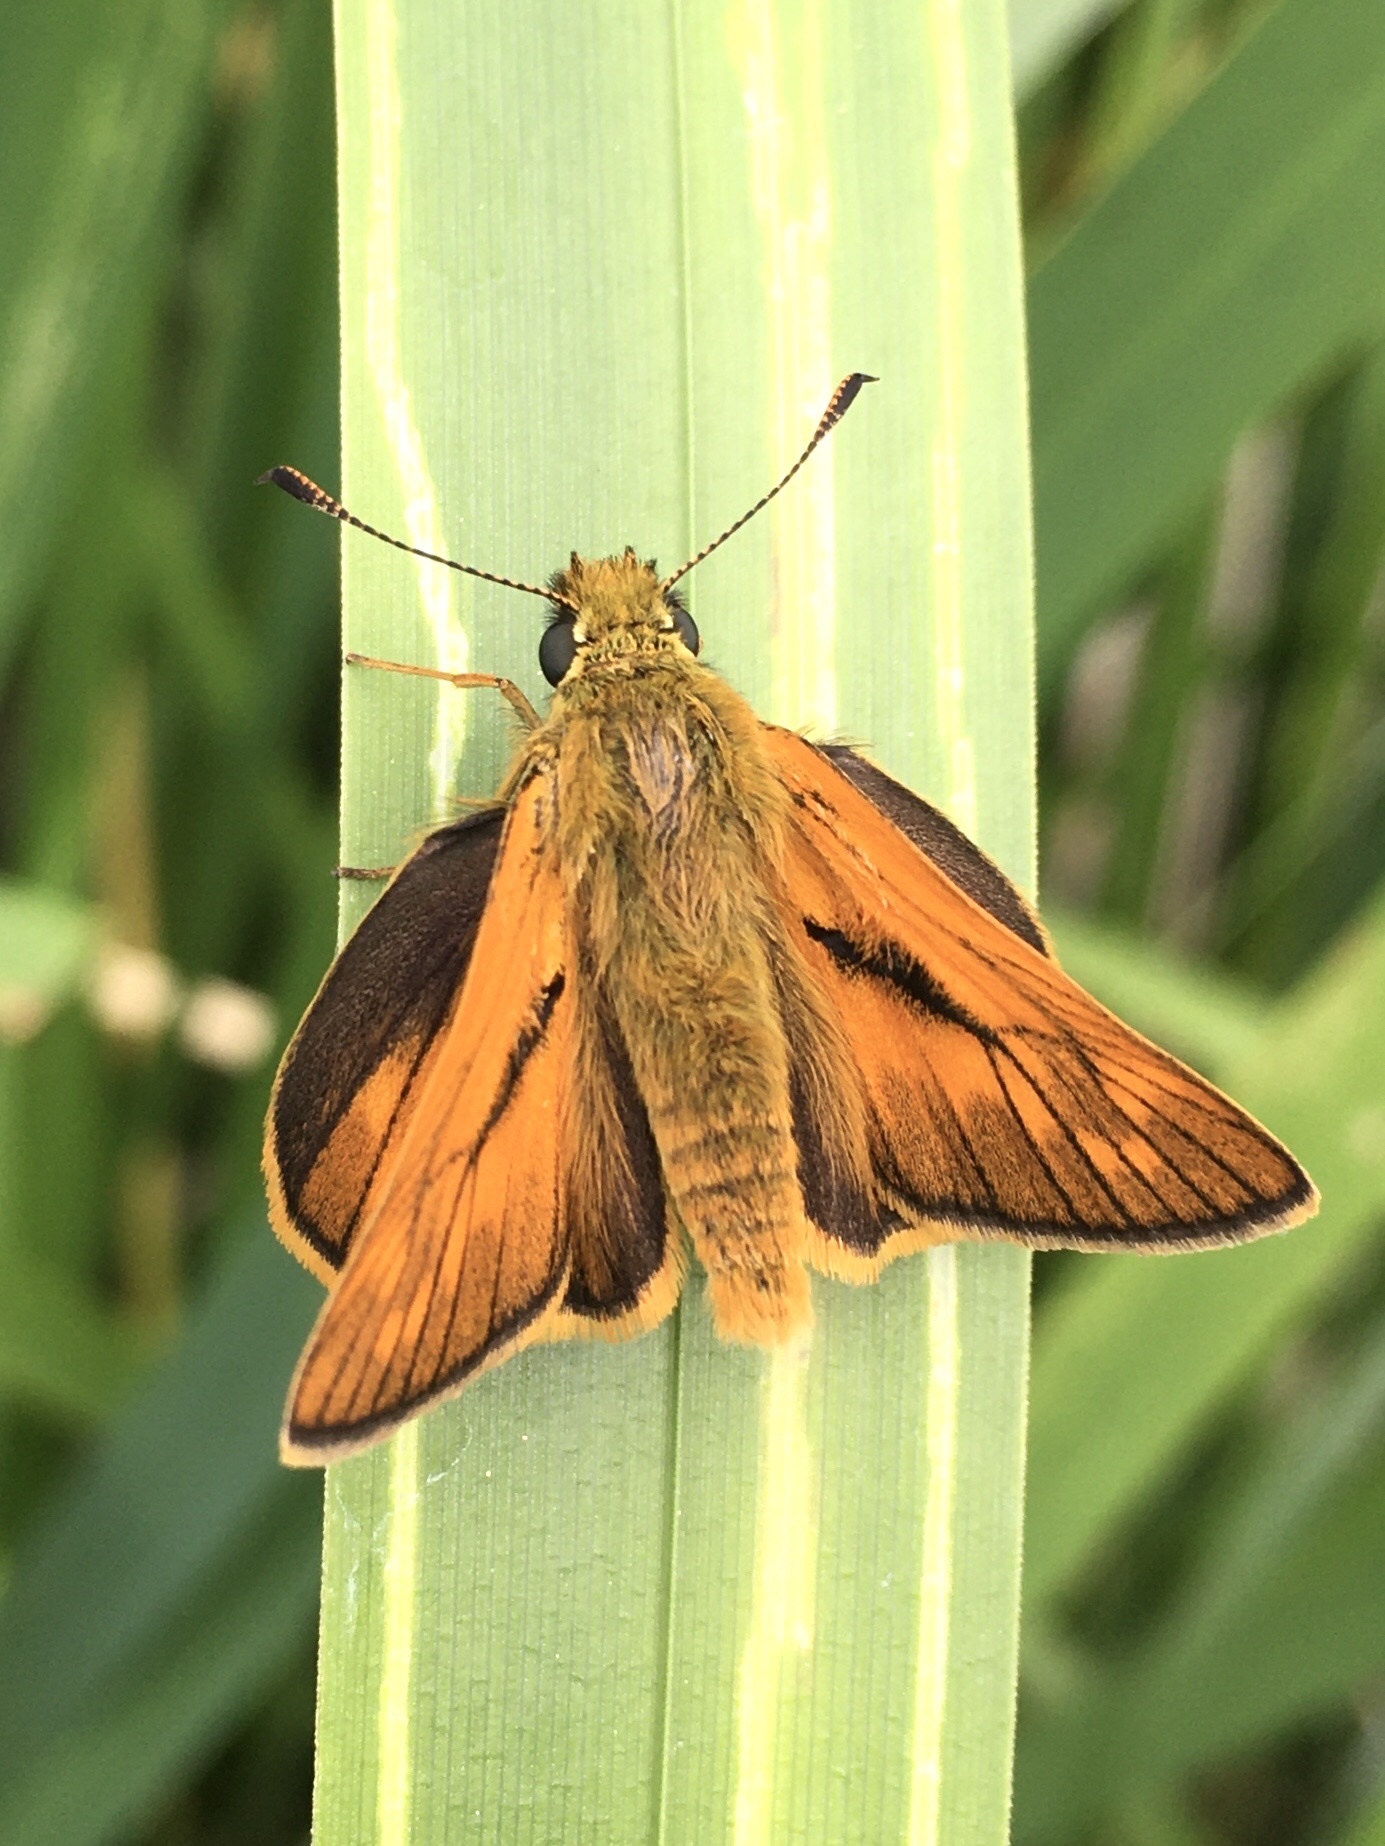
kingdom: Animalia
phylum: Arthropoda
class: Insecta
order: Lepidoptera
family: Hesperiidae
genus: Ochlodes
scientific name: Ochlodes venata
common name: Large skipper
